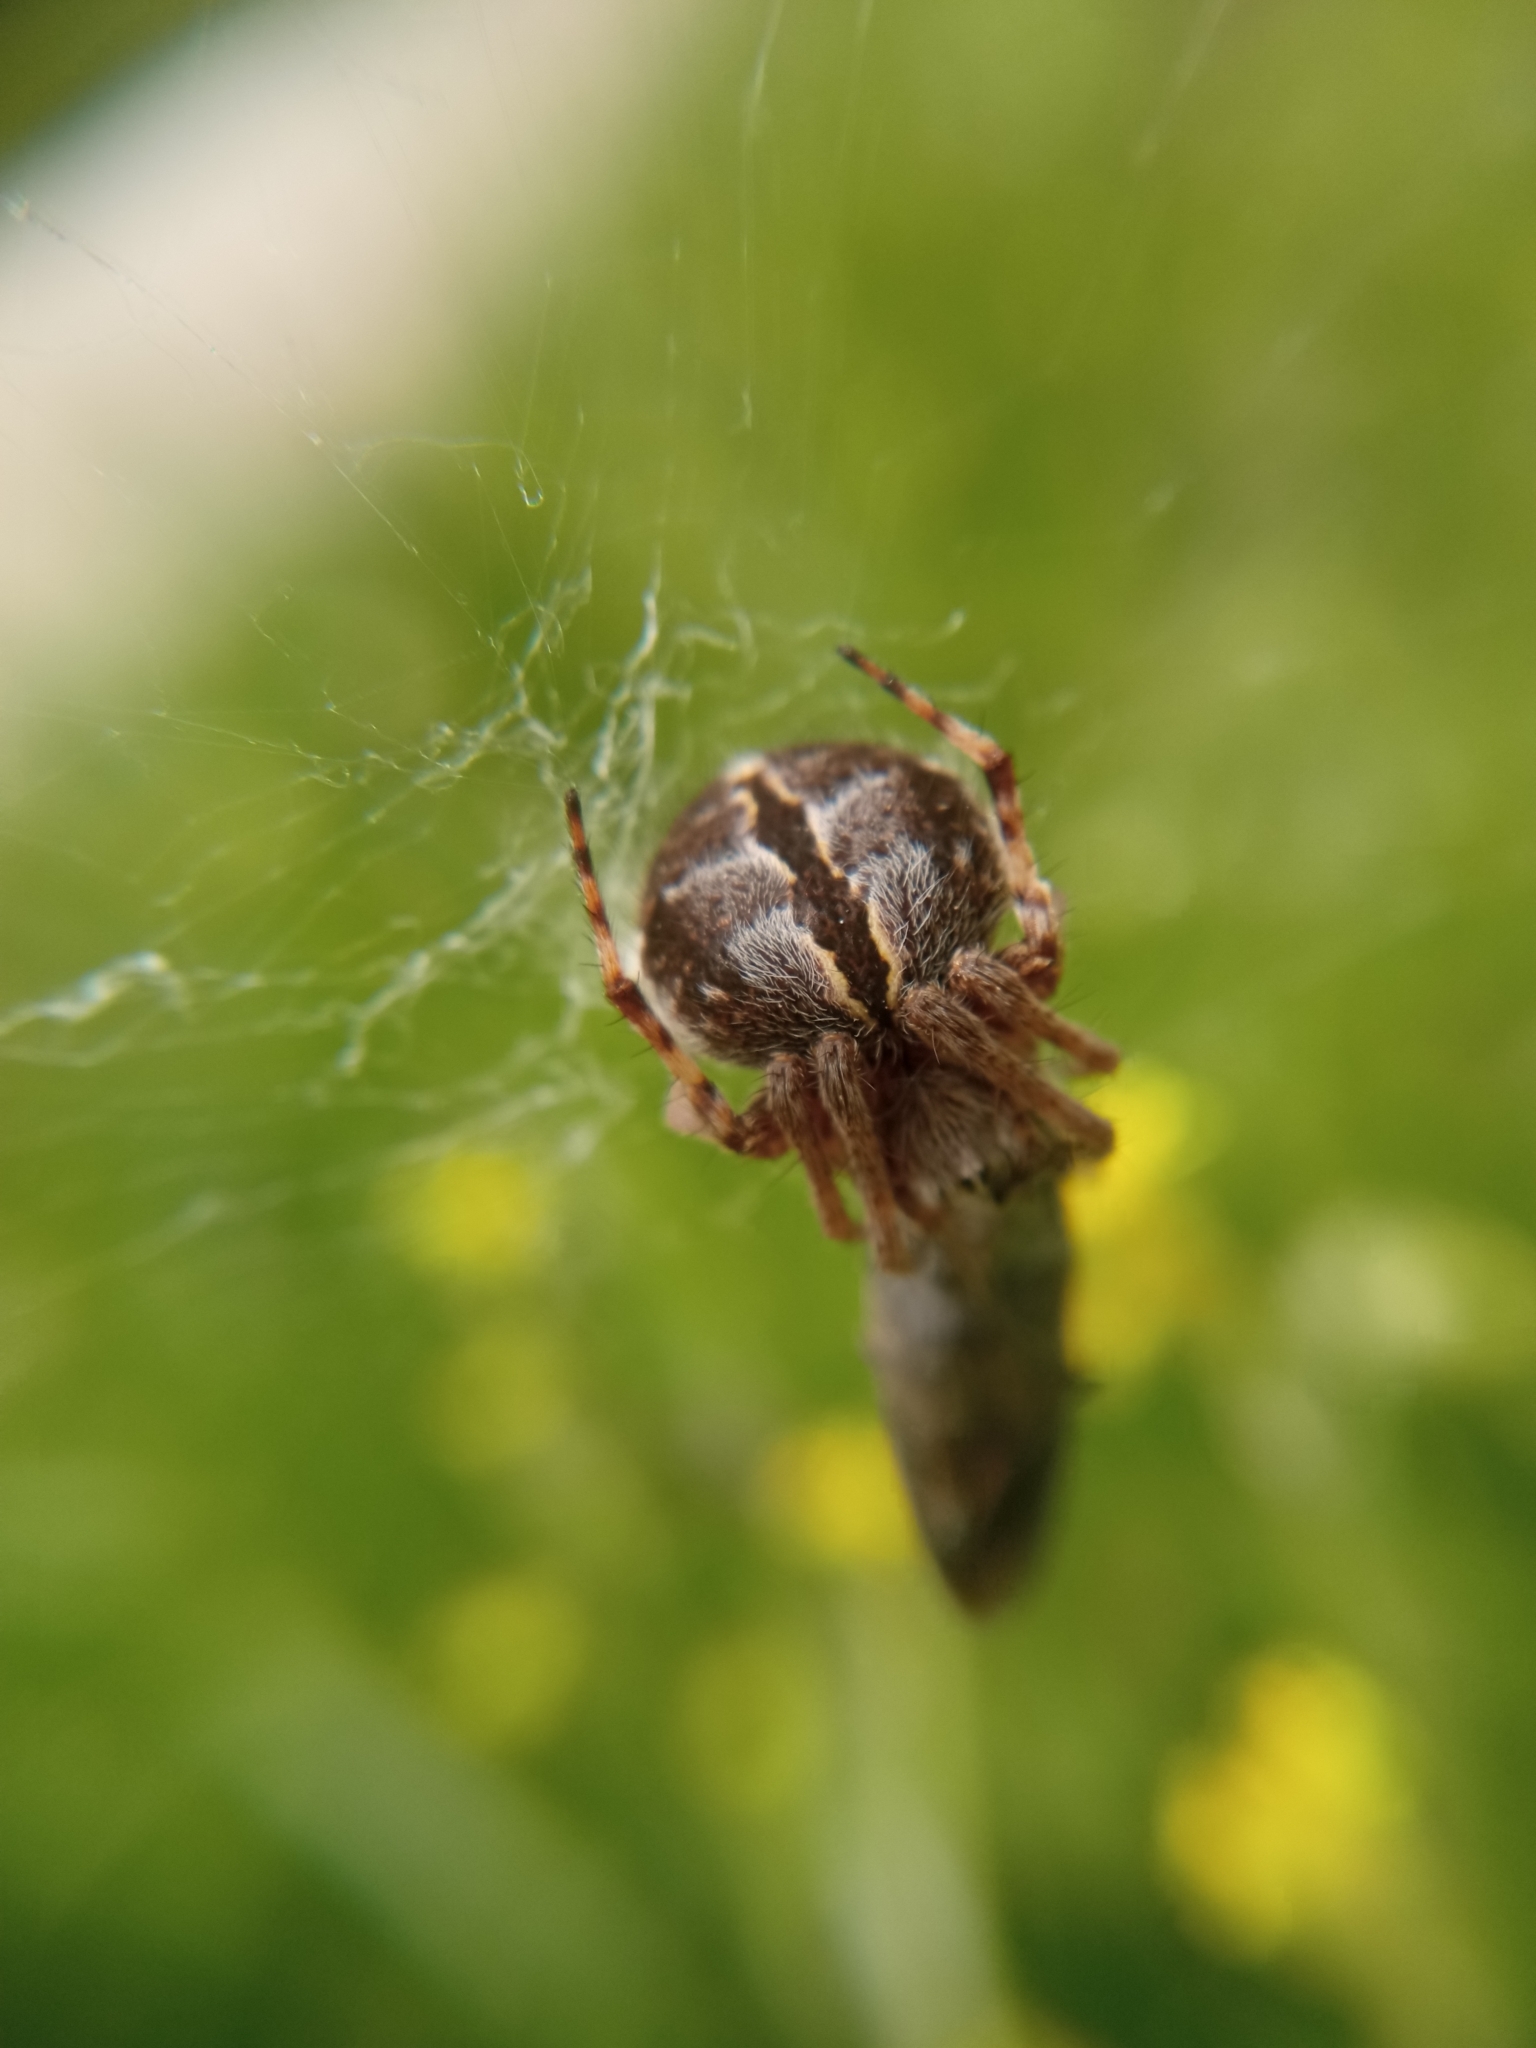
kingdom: Animalia
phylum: Arthropoda
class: Arachnida
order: Araneae
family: Araneidae
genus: Agalenatea
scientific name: Agalenatea redii
